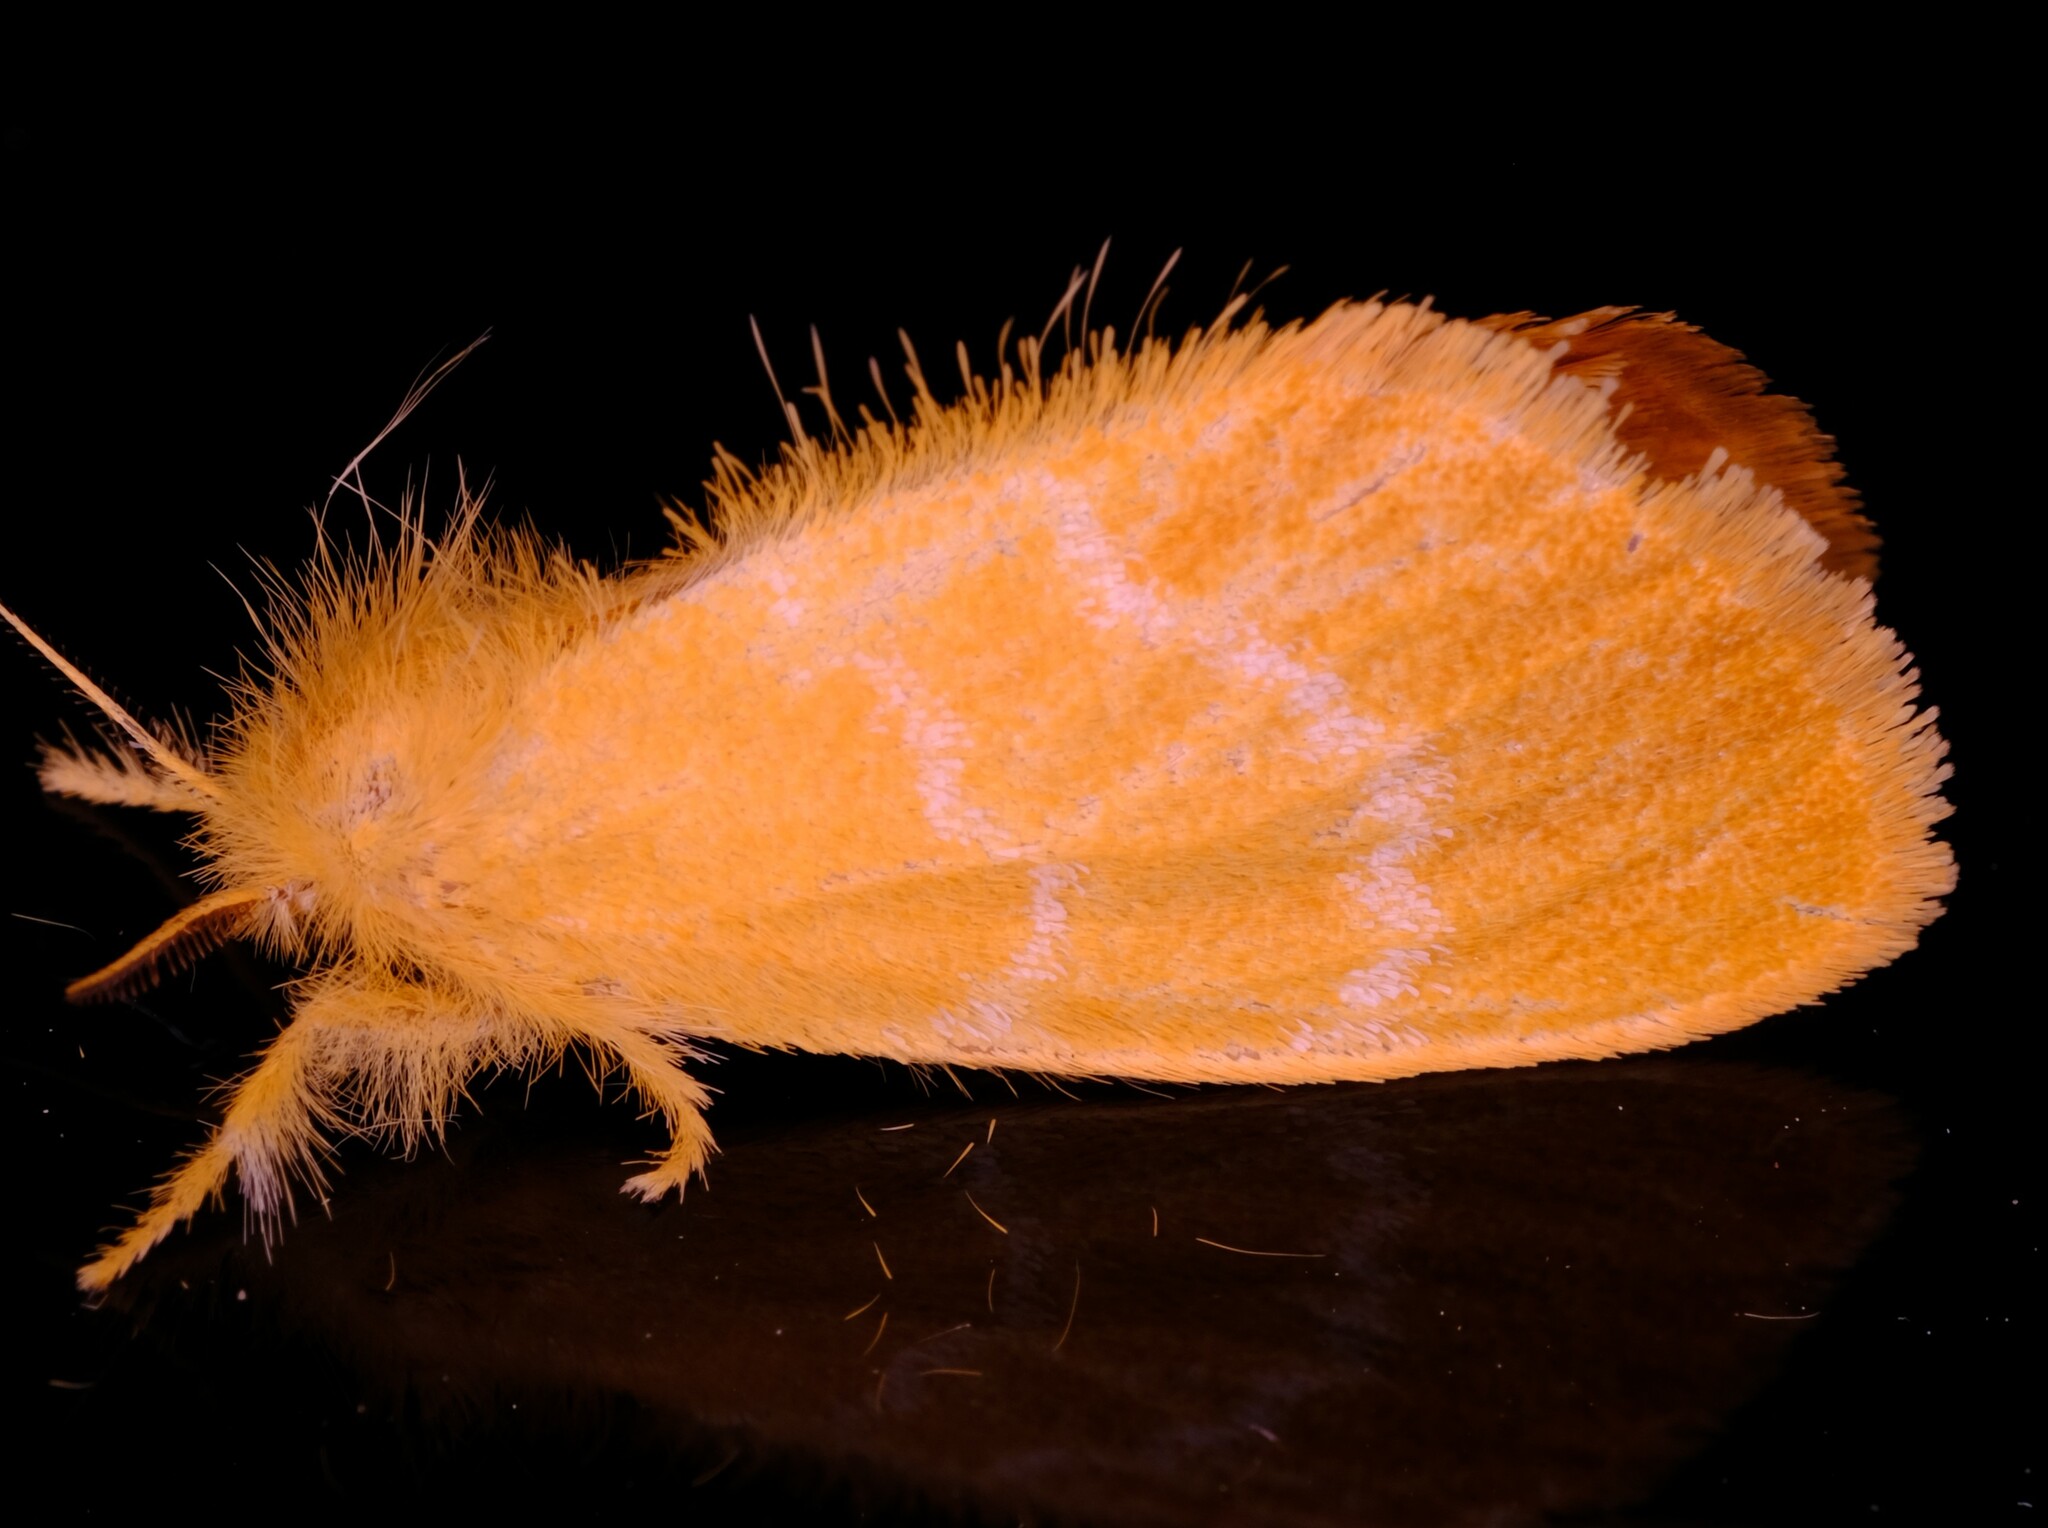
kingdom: Animalia
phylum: Arthropoda
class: Insecta
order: Lepidoptera
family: Erebidae
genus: Euproctis
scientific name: Euproctis lutea
